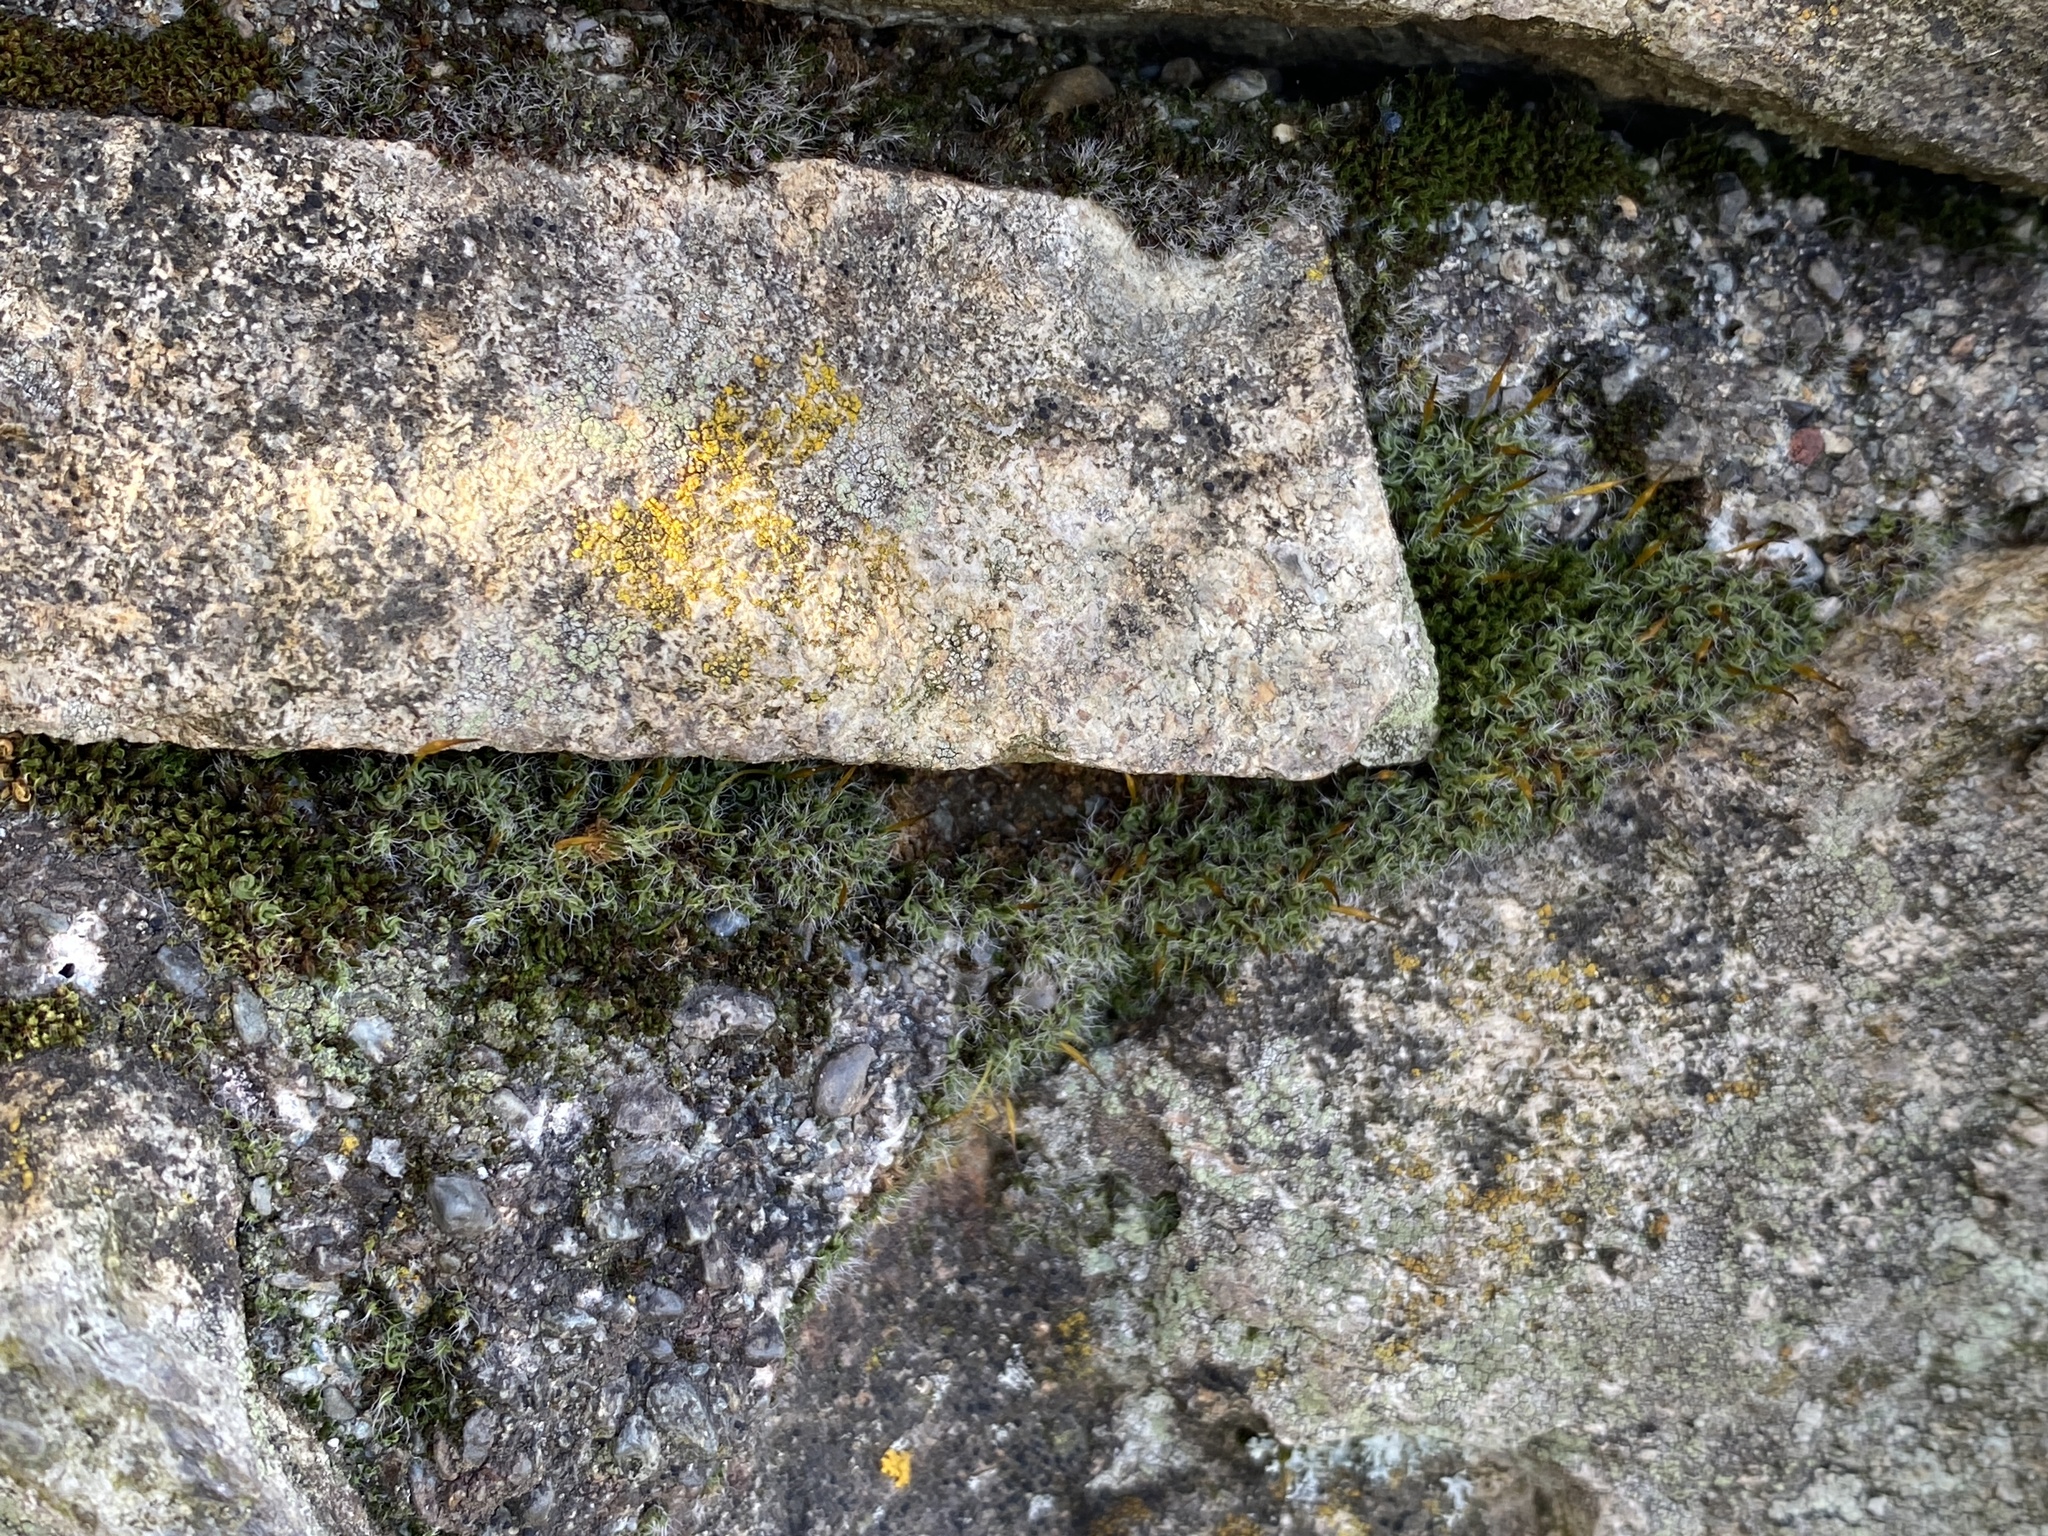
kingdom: Plantae
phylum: Bryophyta
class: Bryopsida
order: Pottiales
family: Pottiaceae
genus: Tortula
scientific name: Tortula muralis
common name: Wall screw-moss
